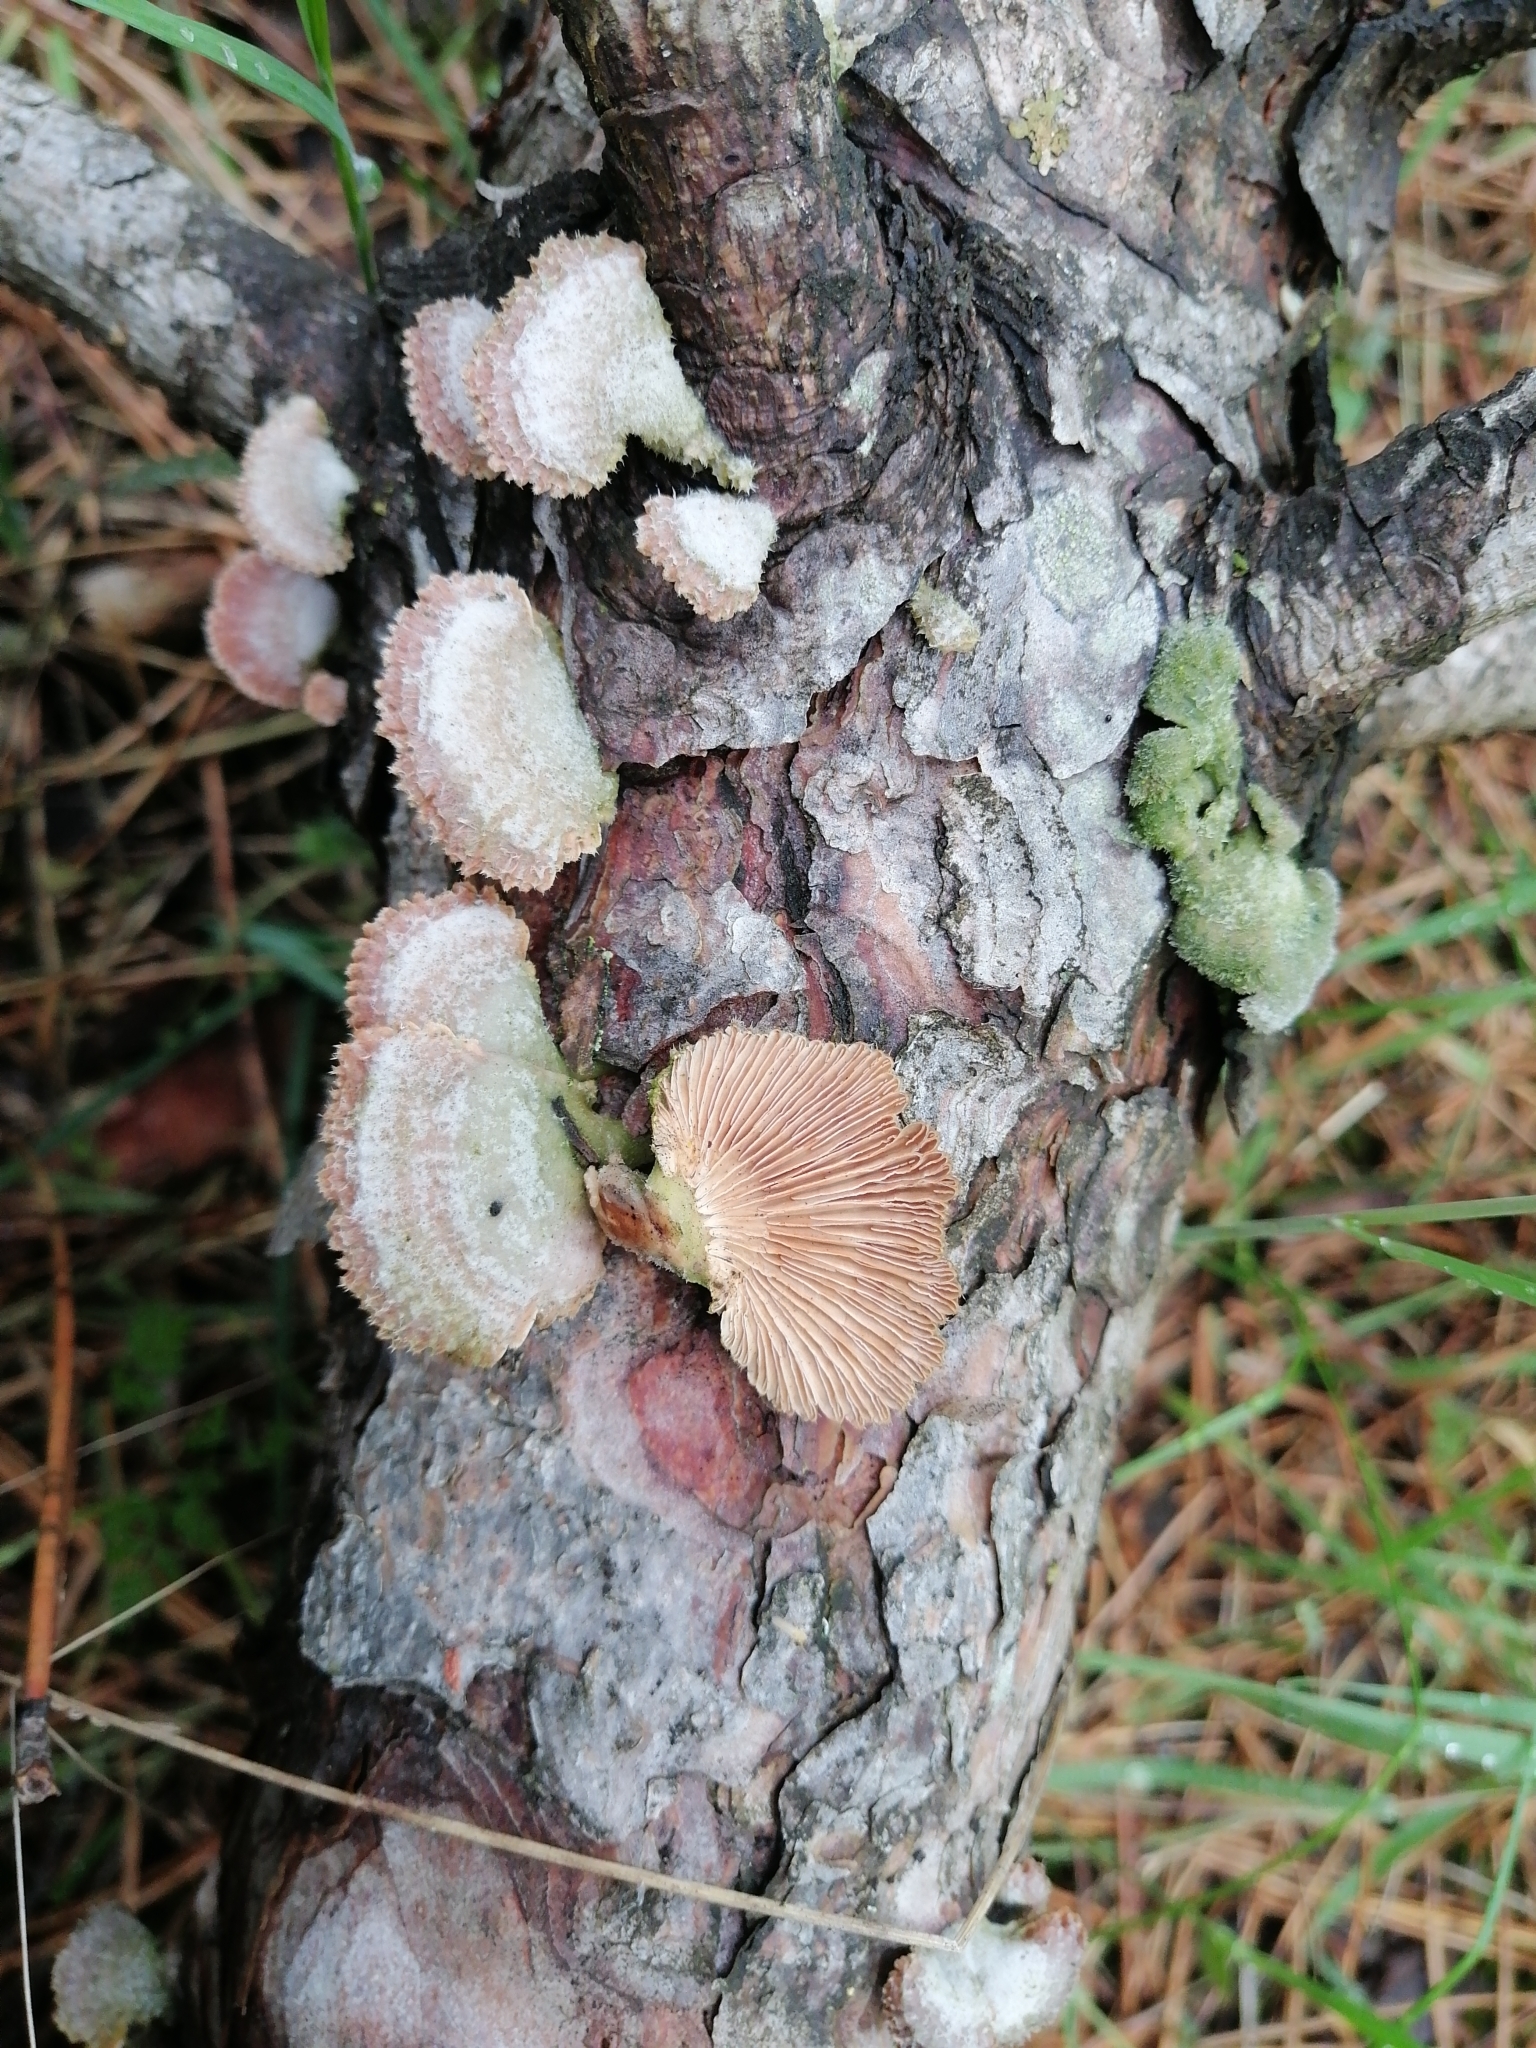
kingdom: Fungi
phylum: Basidiomycota
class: Agaricomycetes
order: Agaricales
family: Schizophyllaceae
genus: Schizophyllum
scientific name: Schizophyllum commune
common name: Common porecrust
